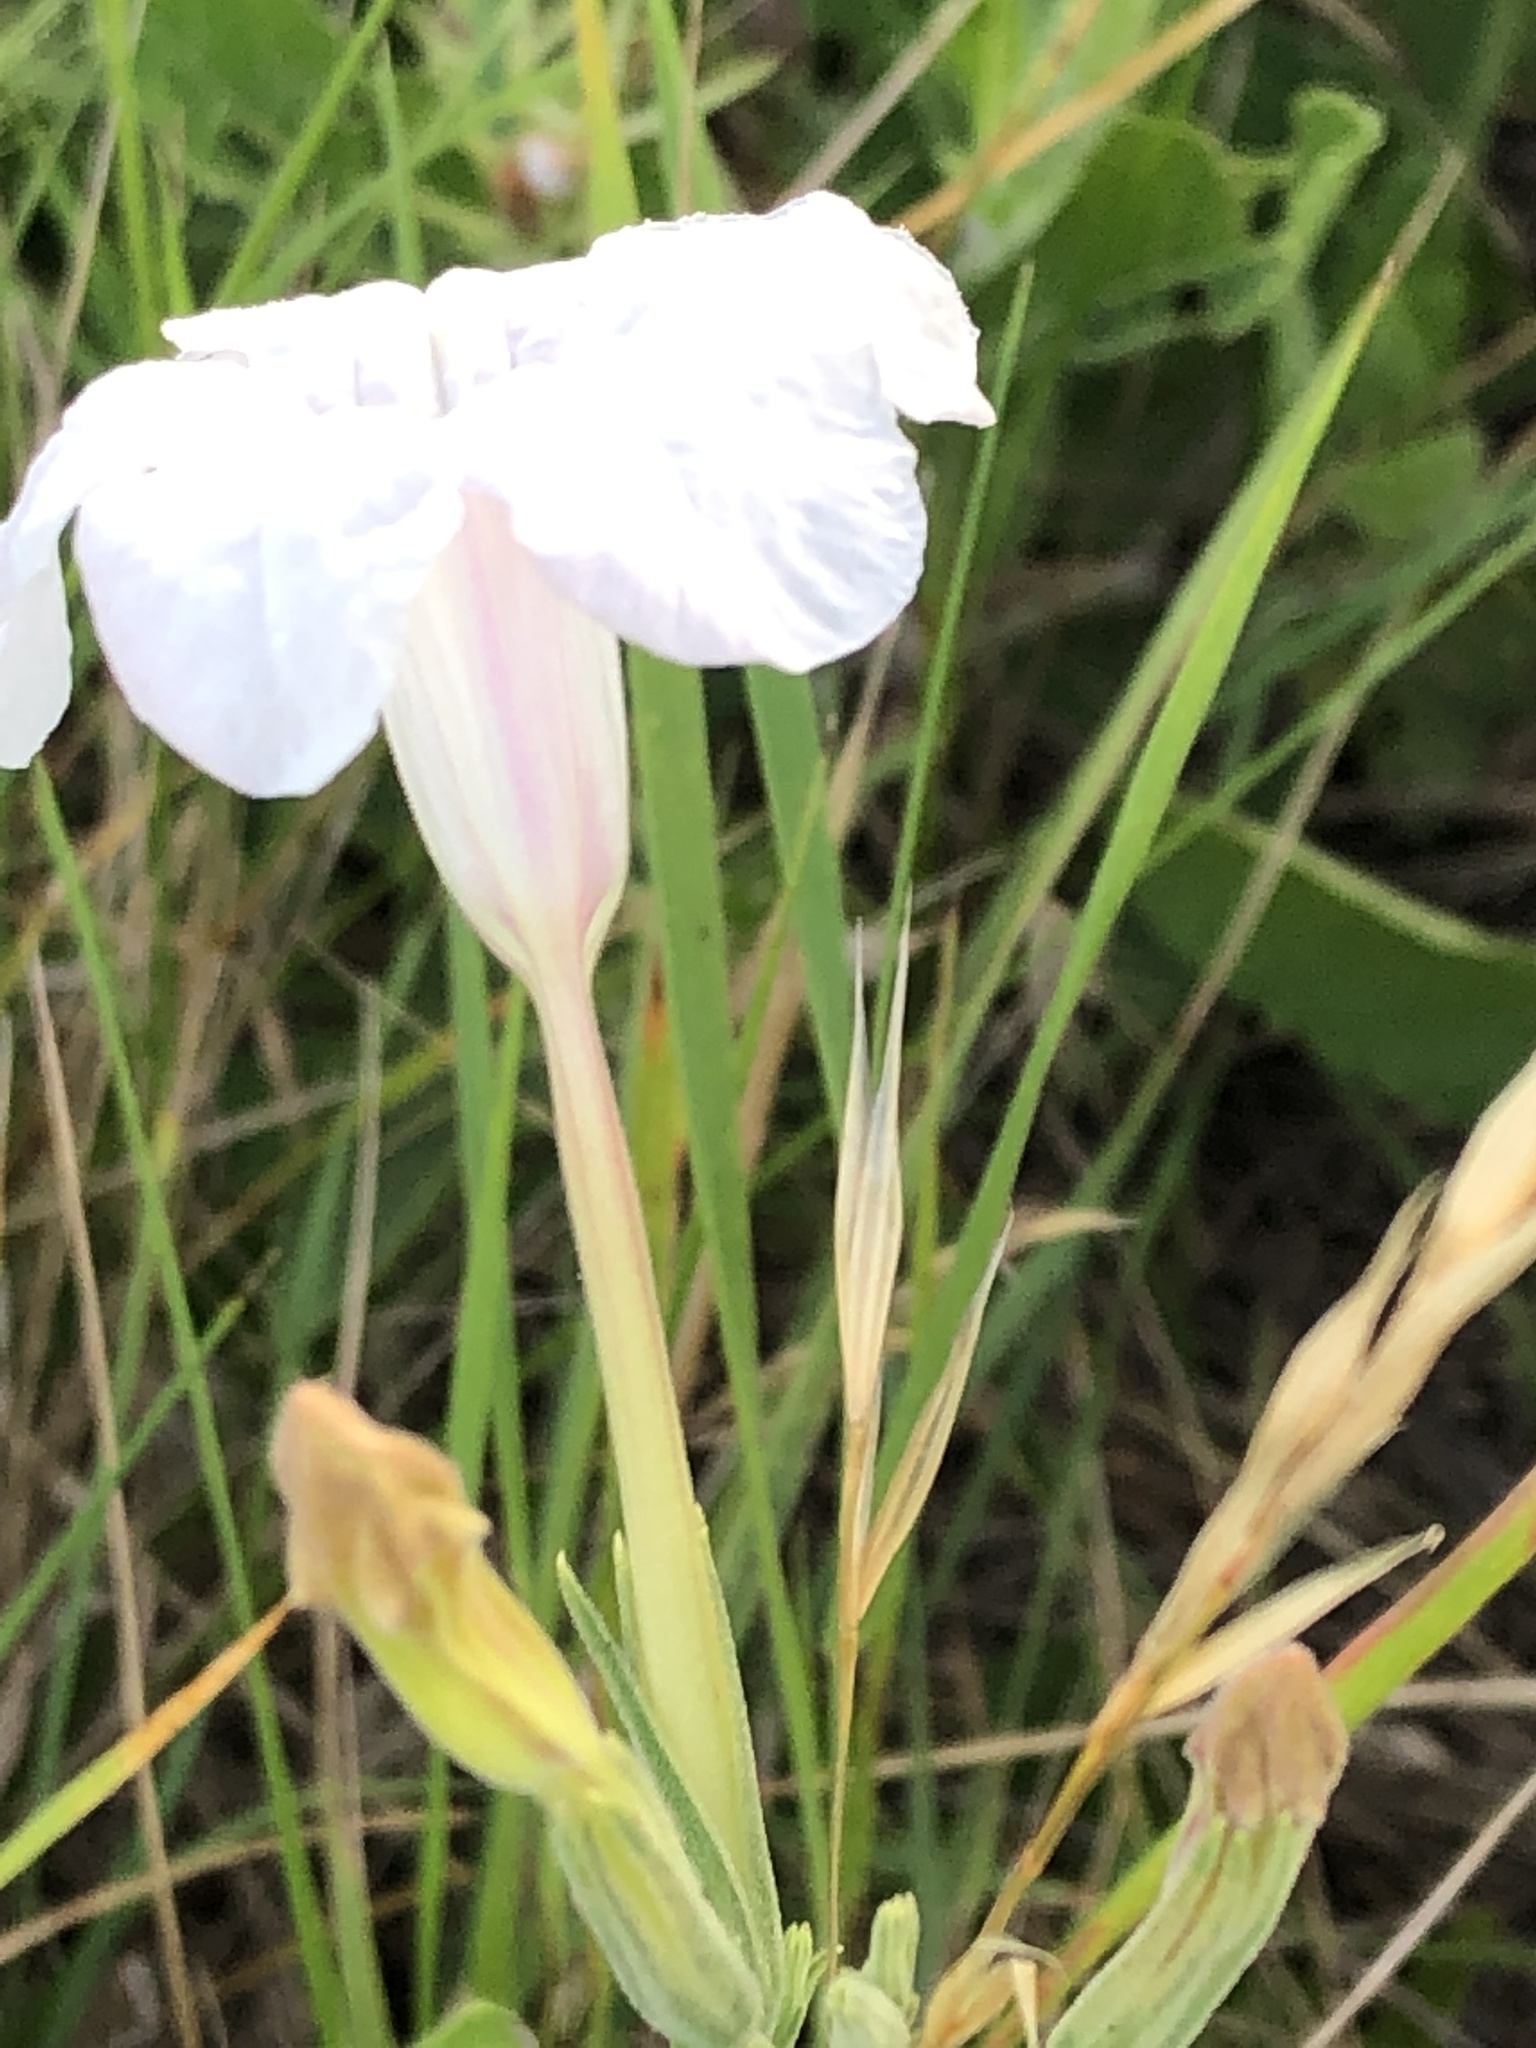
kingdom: Plantae
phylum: Tracheophyta
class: Magnoliopsida
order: Lamiales
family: Acanthaceae
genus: Ruellia
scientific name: Ruellia metziae
